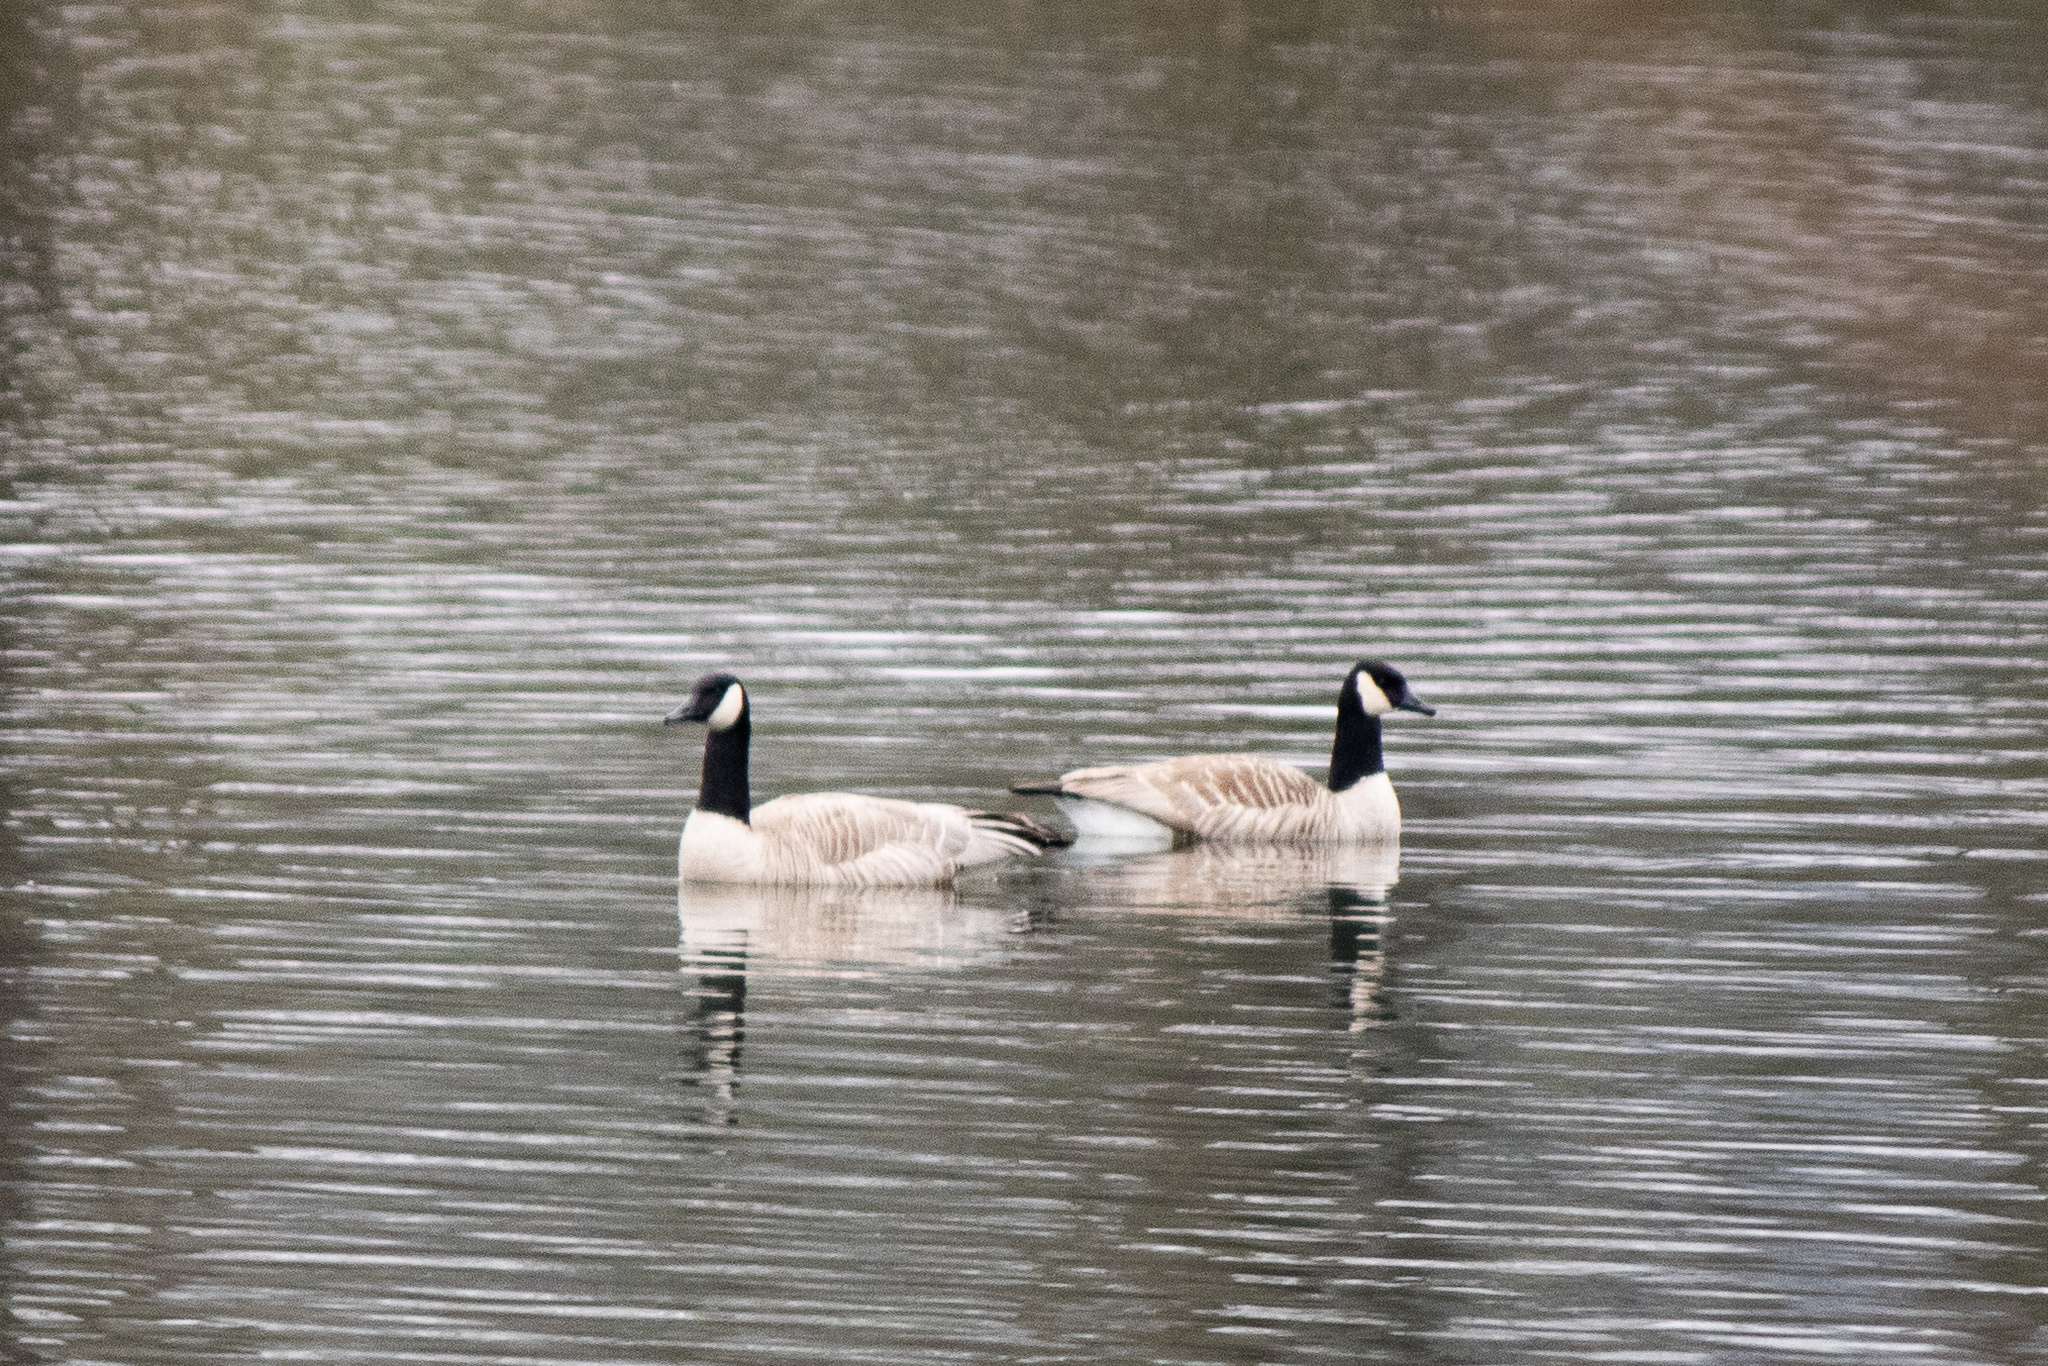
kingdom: Animalia
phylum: Chordata
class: Aves
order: Anseriformes
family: Anatidae
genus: Branta
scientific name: Branta canadensis
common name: Canada goose
